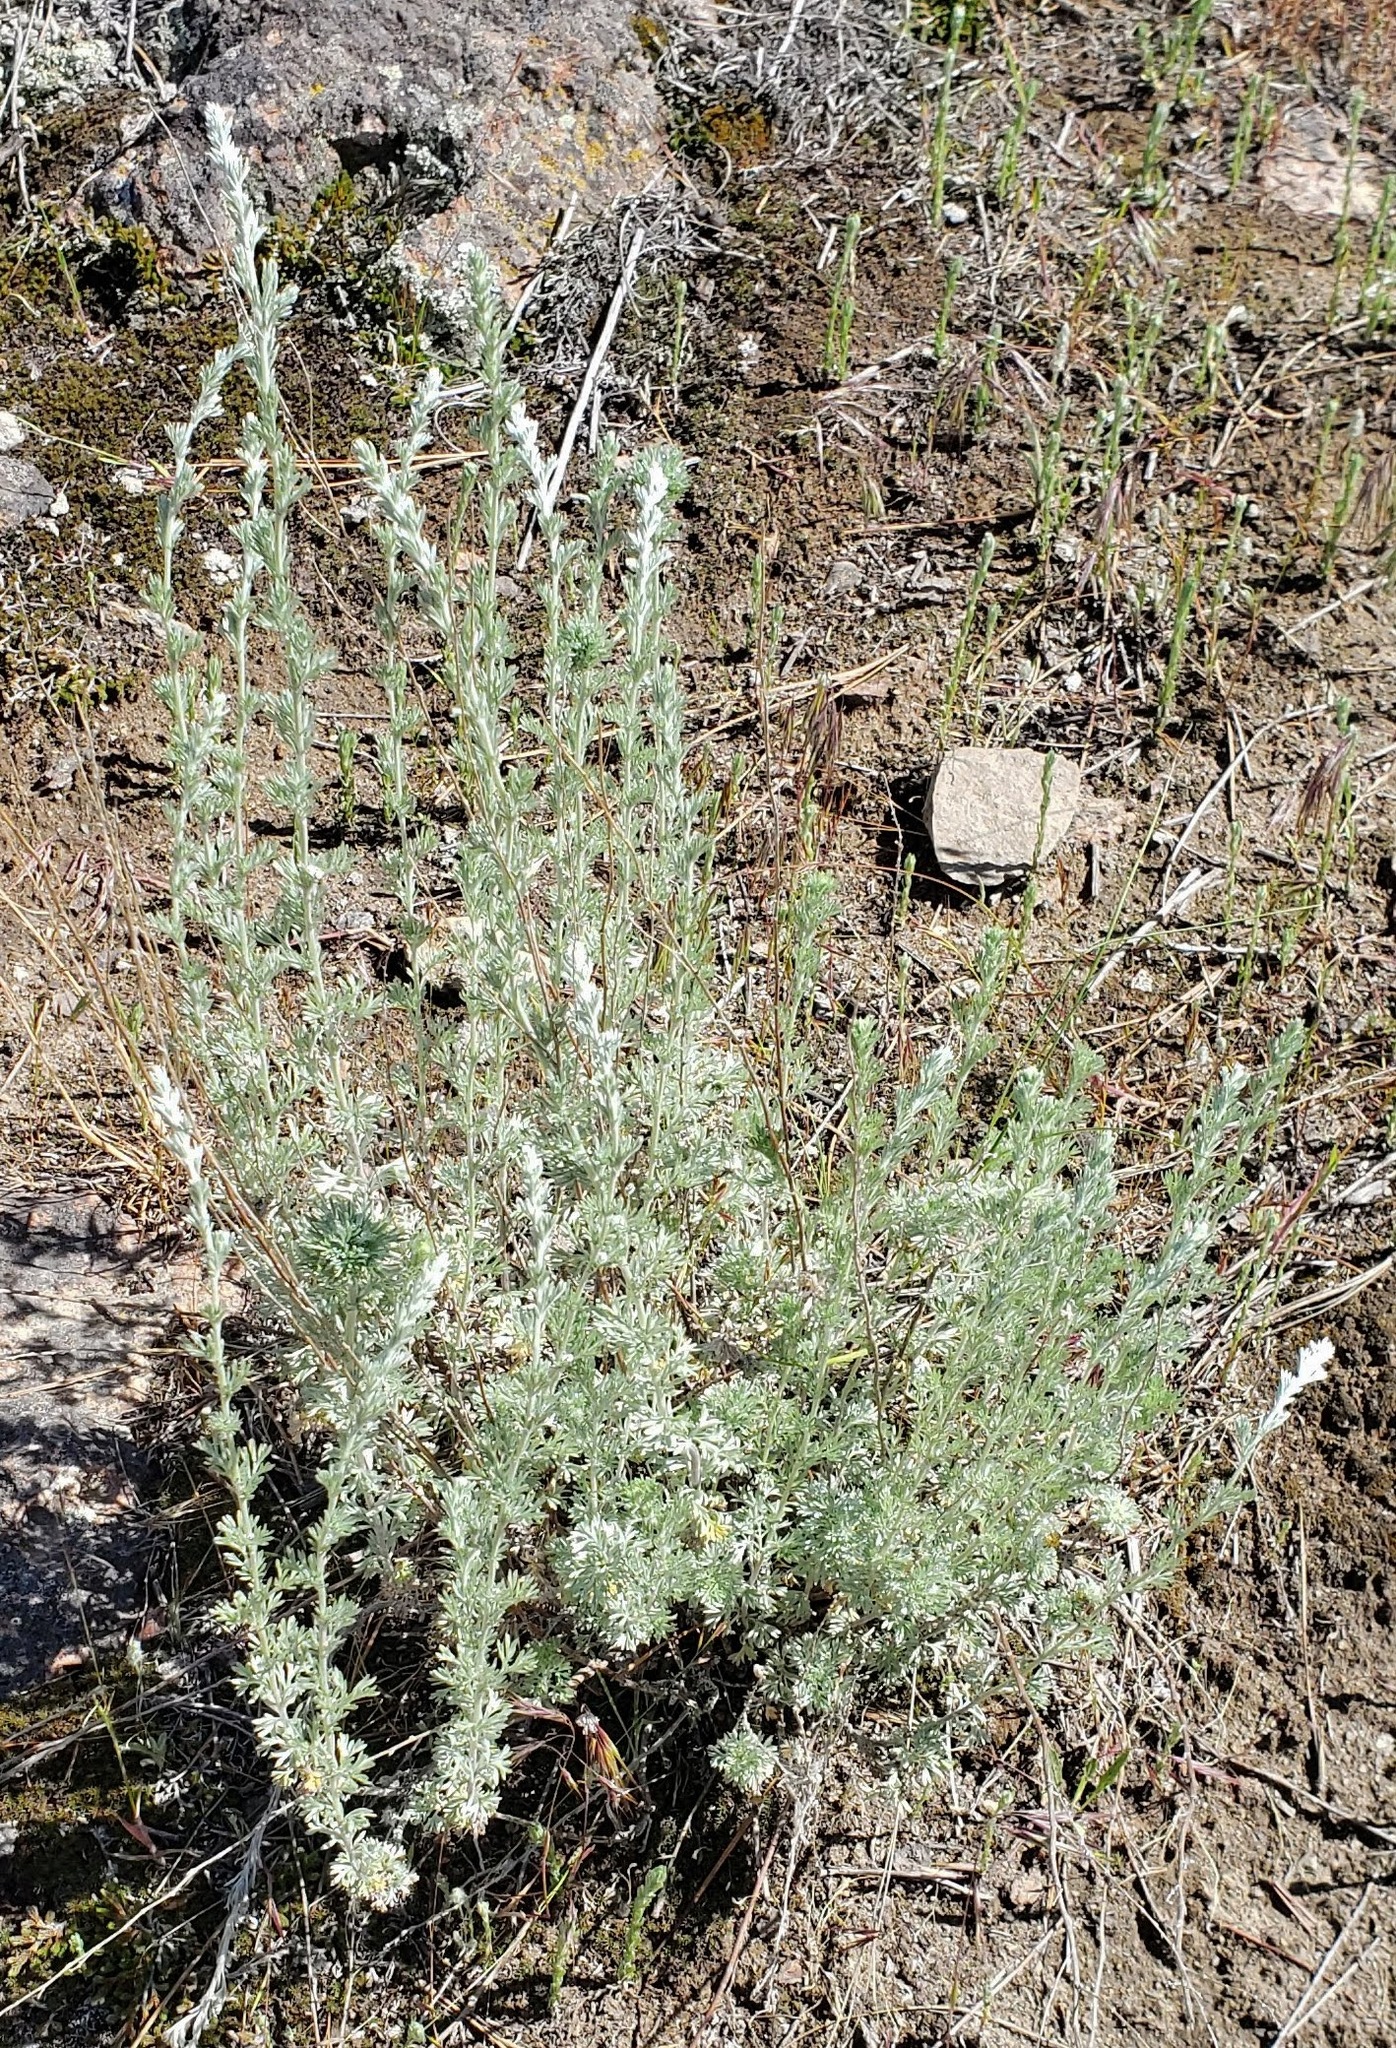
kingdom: Plantae
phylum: Tracheophyta
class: Magnoliopsida
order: Asterales
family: Asteraceae
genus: Artemisia
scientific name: Artemisia frigida
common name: Prairie sagewort
